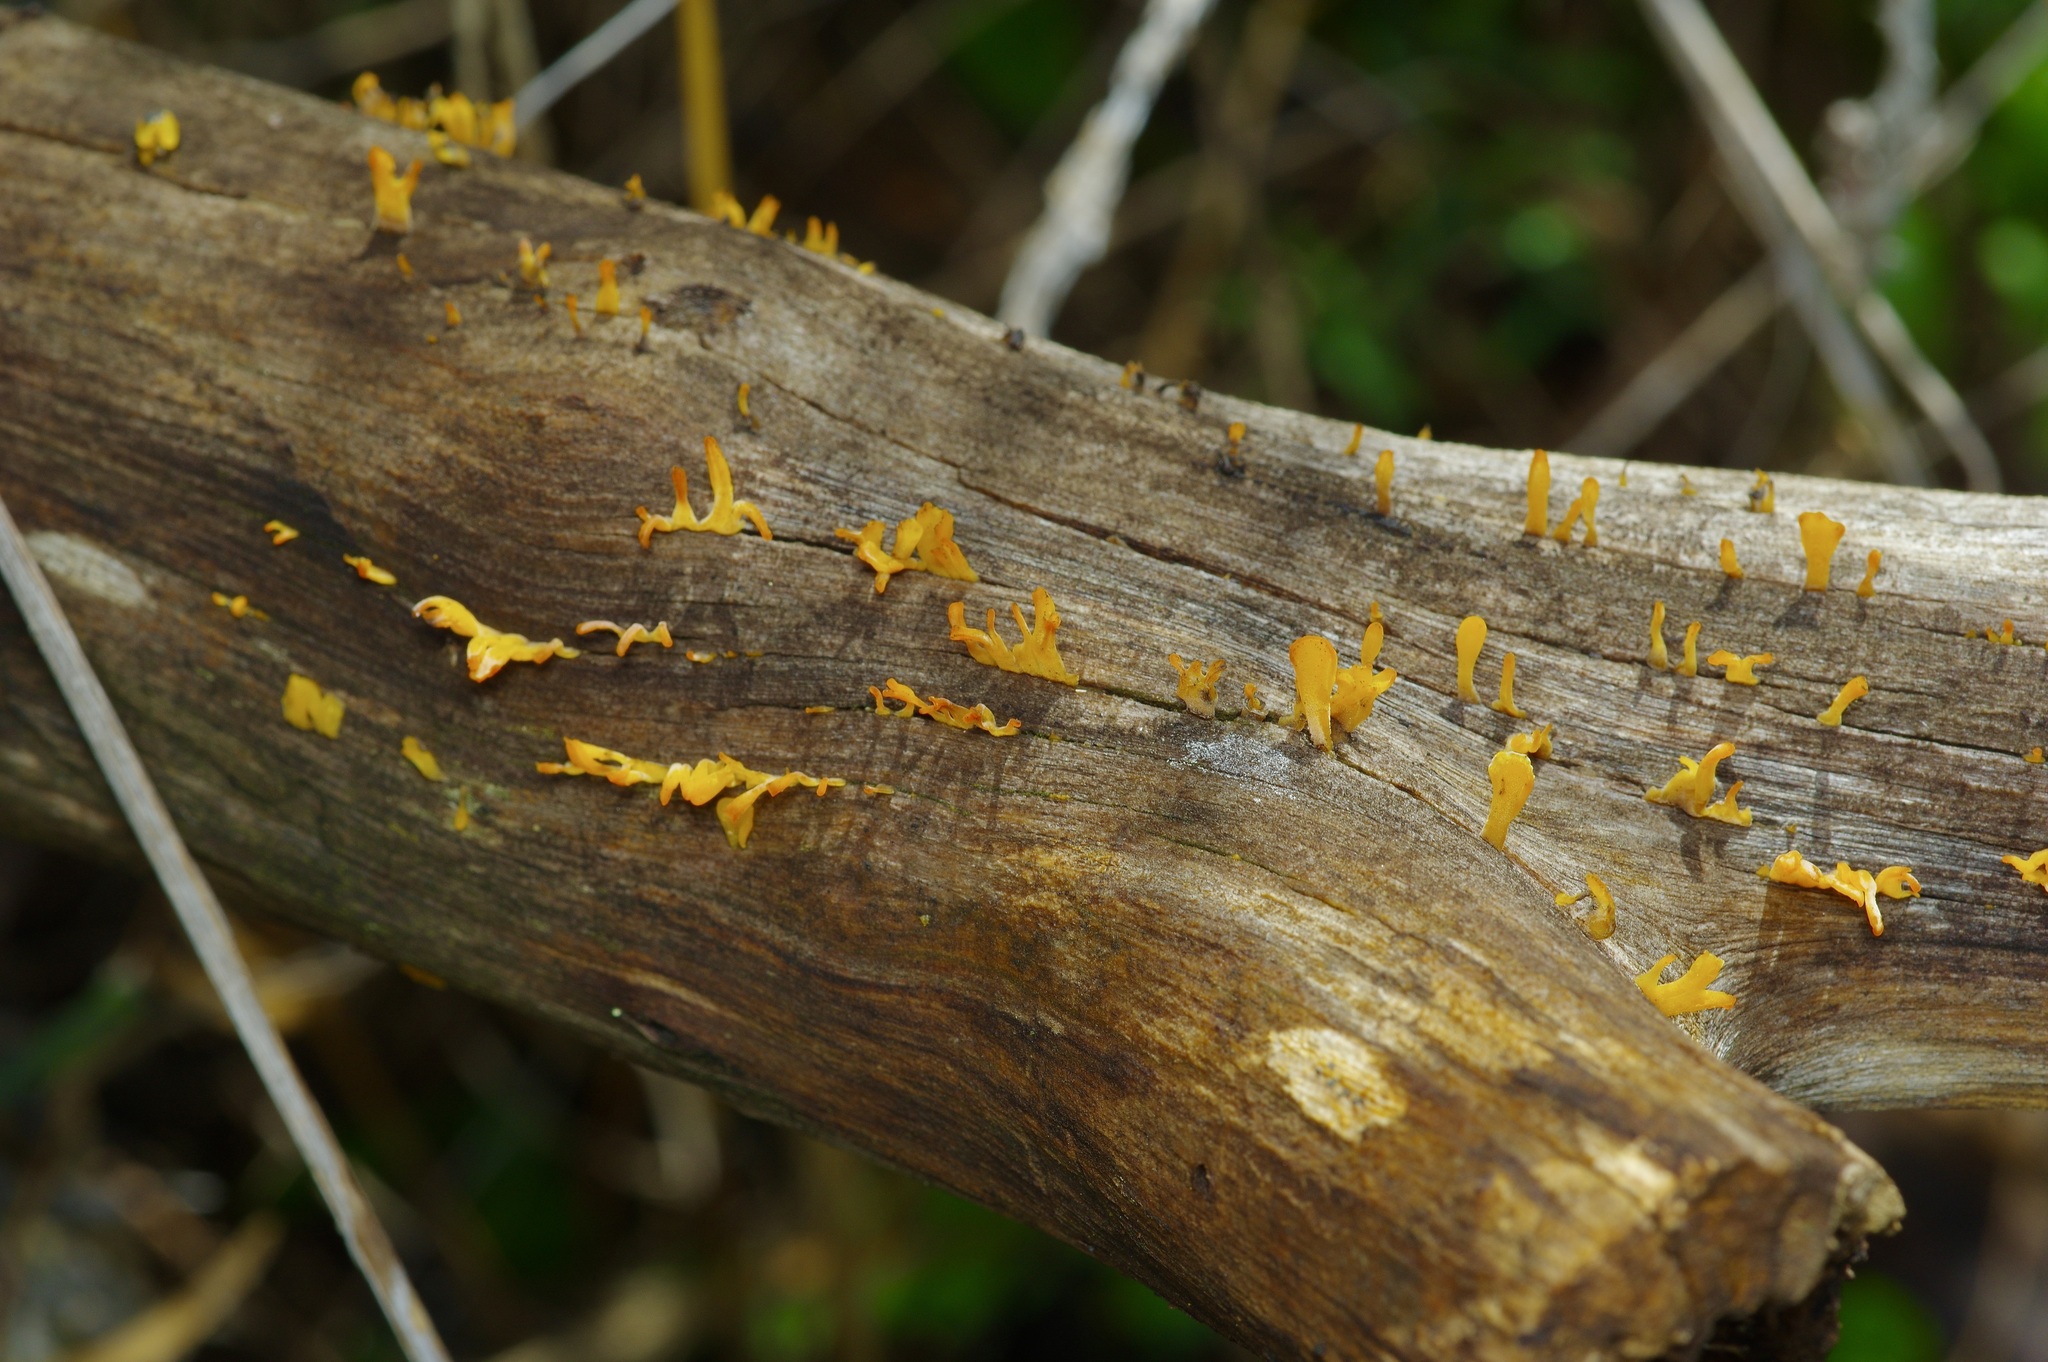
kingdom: Fungi
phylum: Basidiomycota
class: Dacrymycetes
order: Dacrymycetales
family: Dacrymycetaceae
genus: Dacrymyces
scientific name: Dacrymyces spathularius
